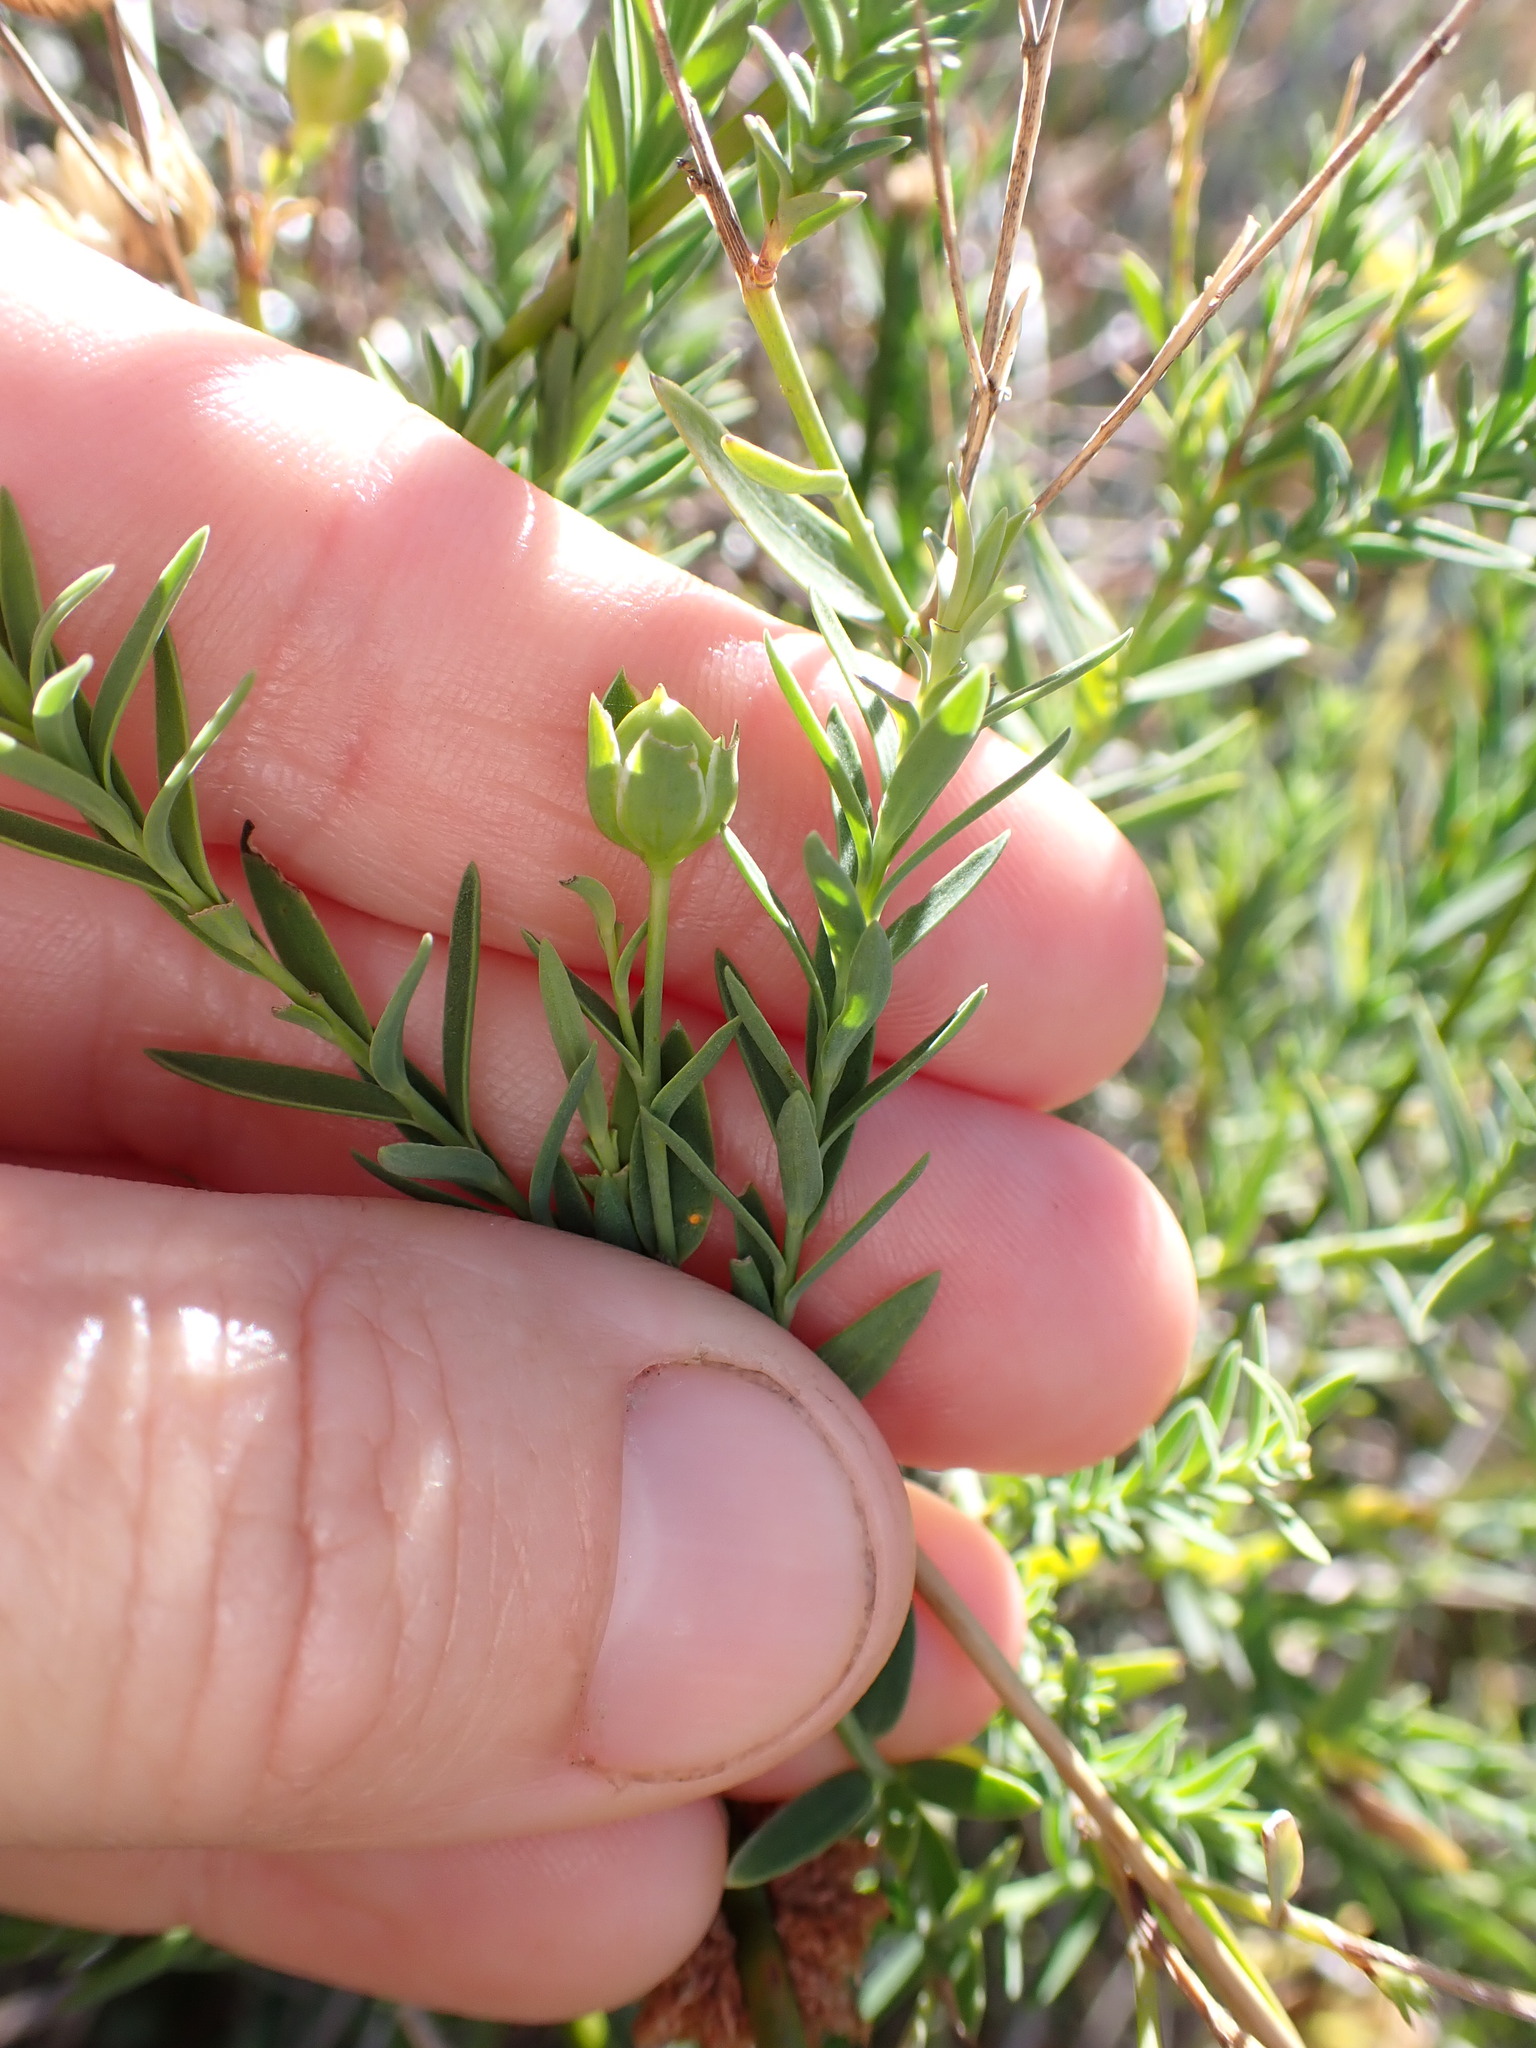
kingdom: Plantae
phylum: Tracheophyta
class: Magnoliopsida
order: Malpighiales
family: Linaceae
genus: Linum
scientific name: Linum monogynum
